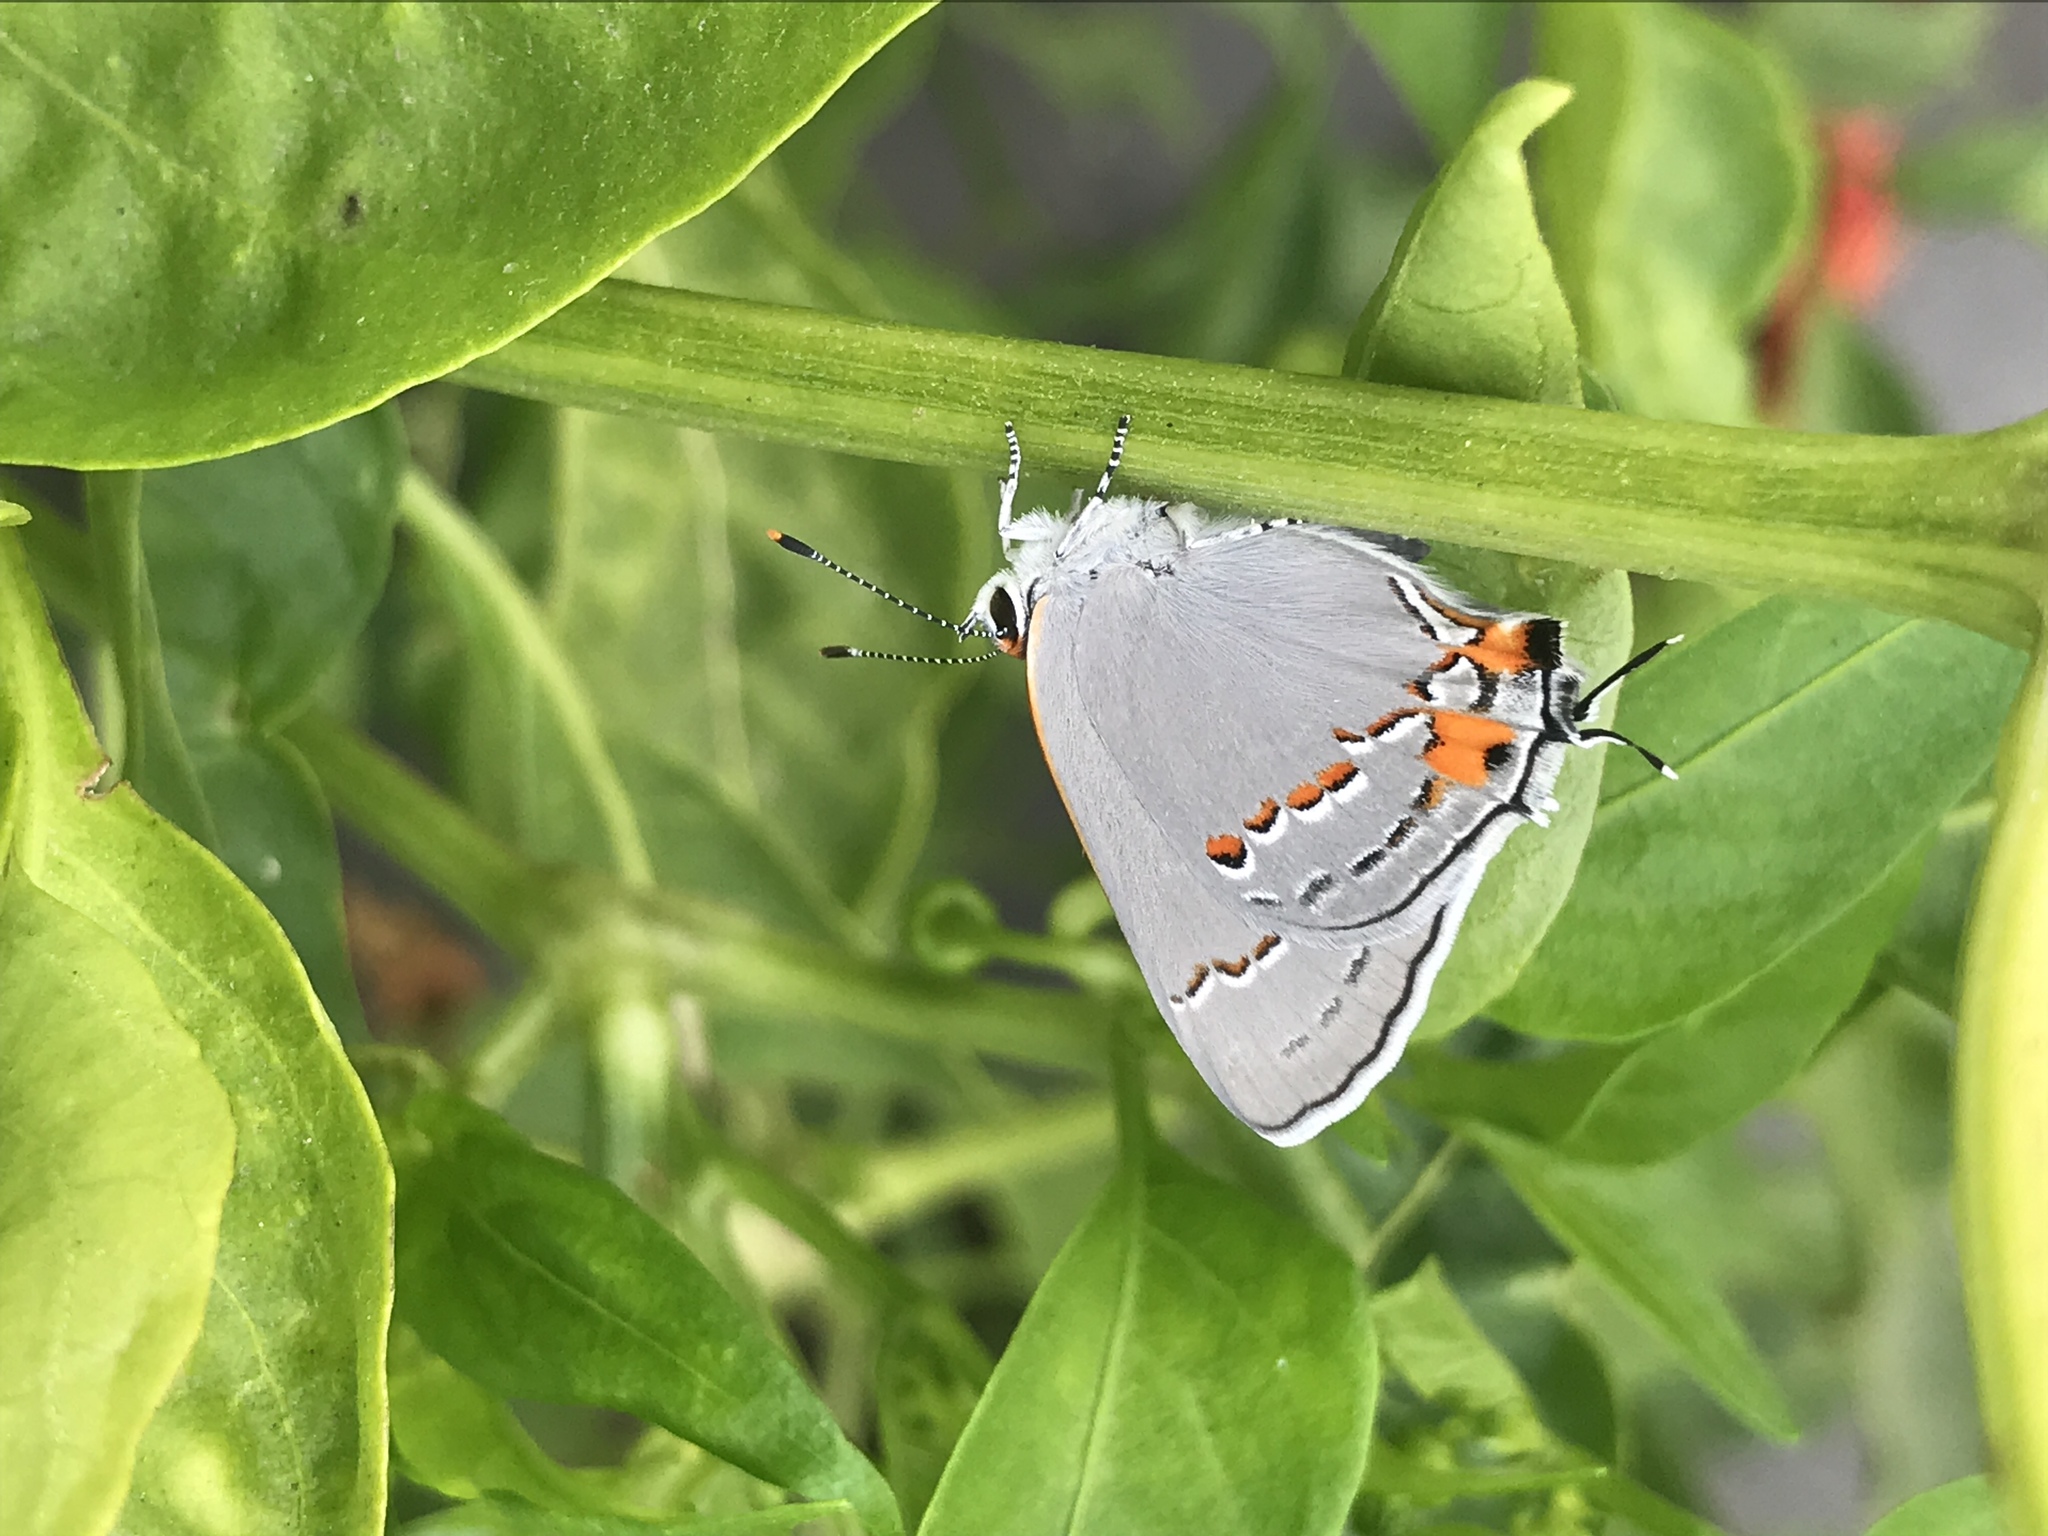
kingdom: Animalia
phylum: Arthropoda
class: Insecta
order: Lepidoptera
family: Lycaenidae
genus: Strymon
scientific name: Strymon melinus
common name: Gray hairstreak
